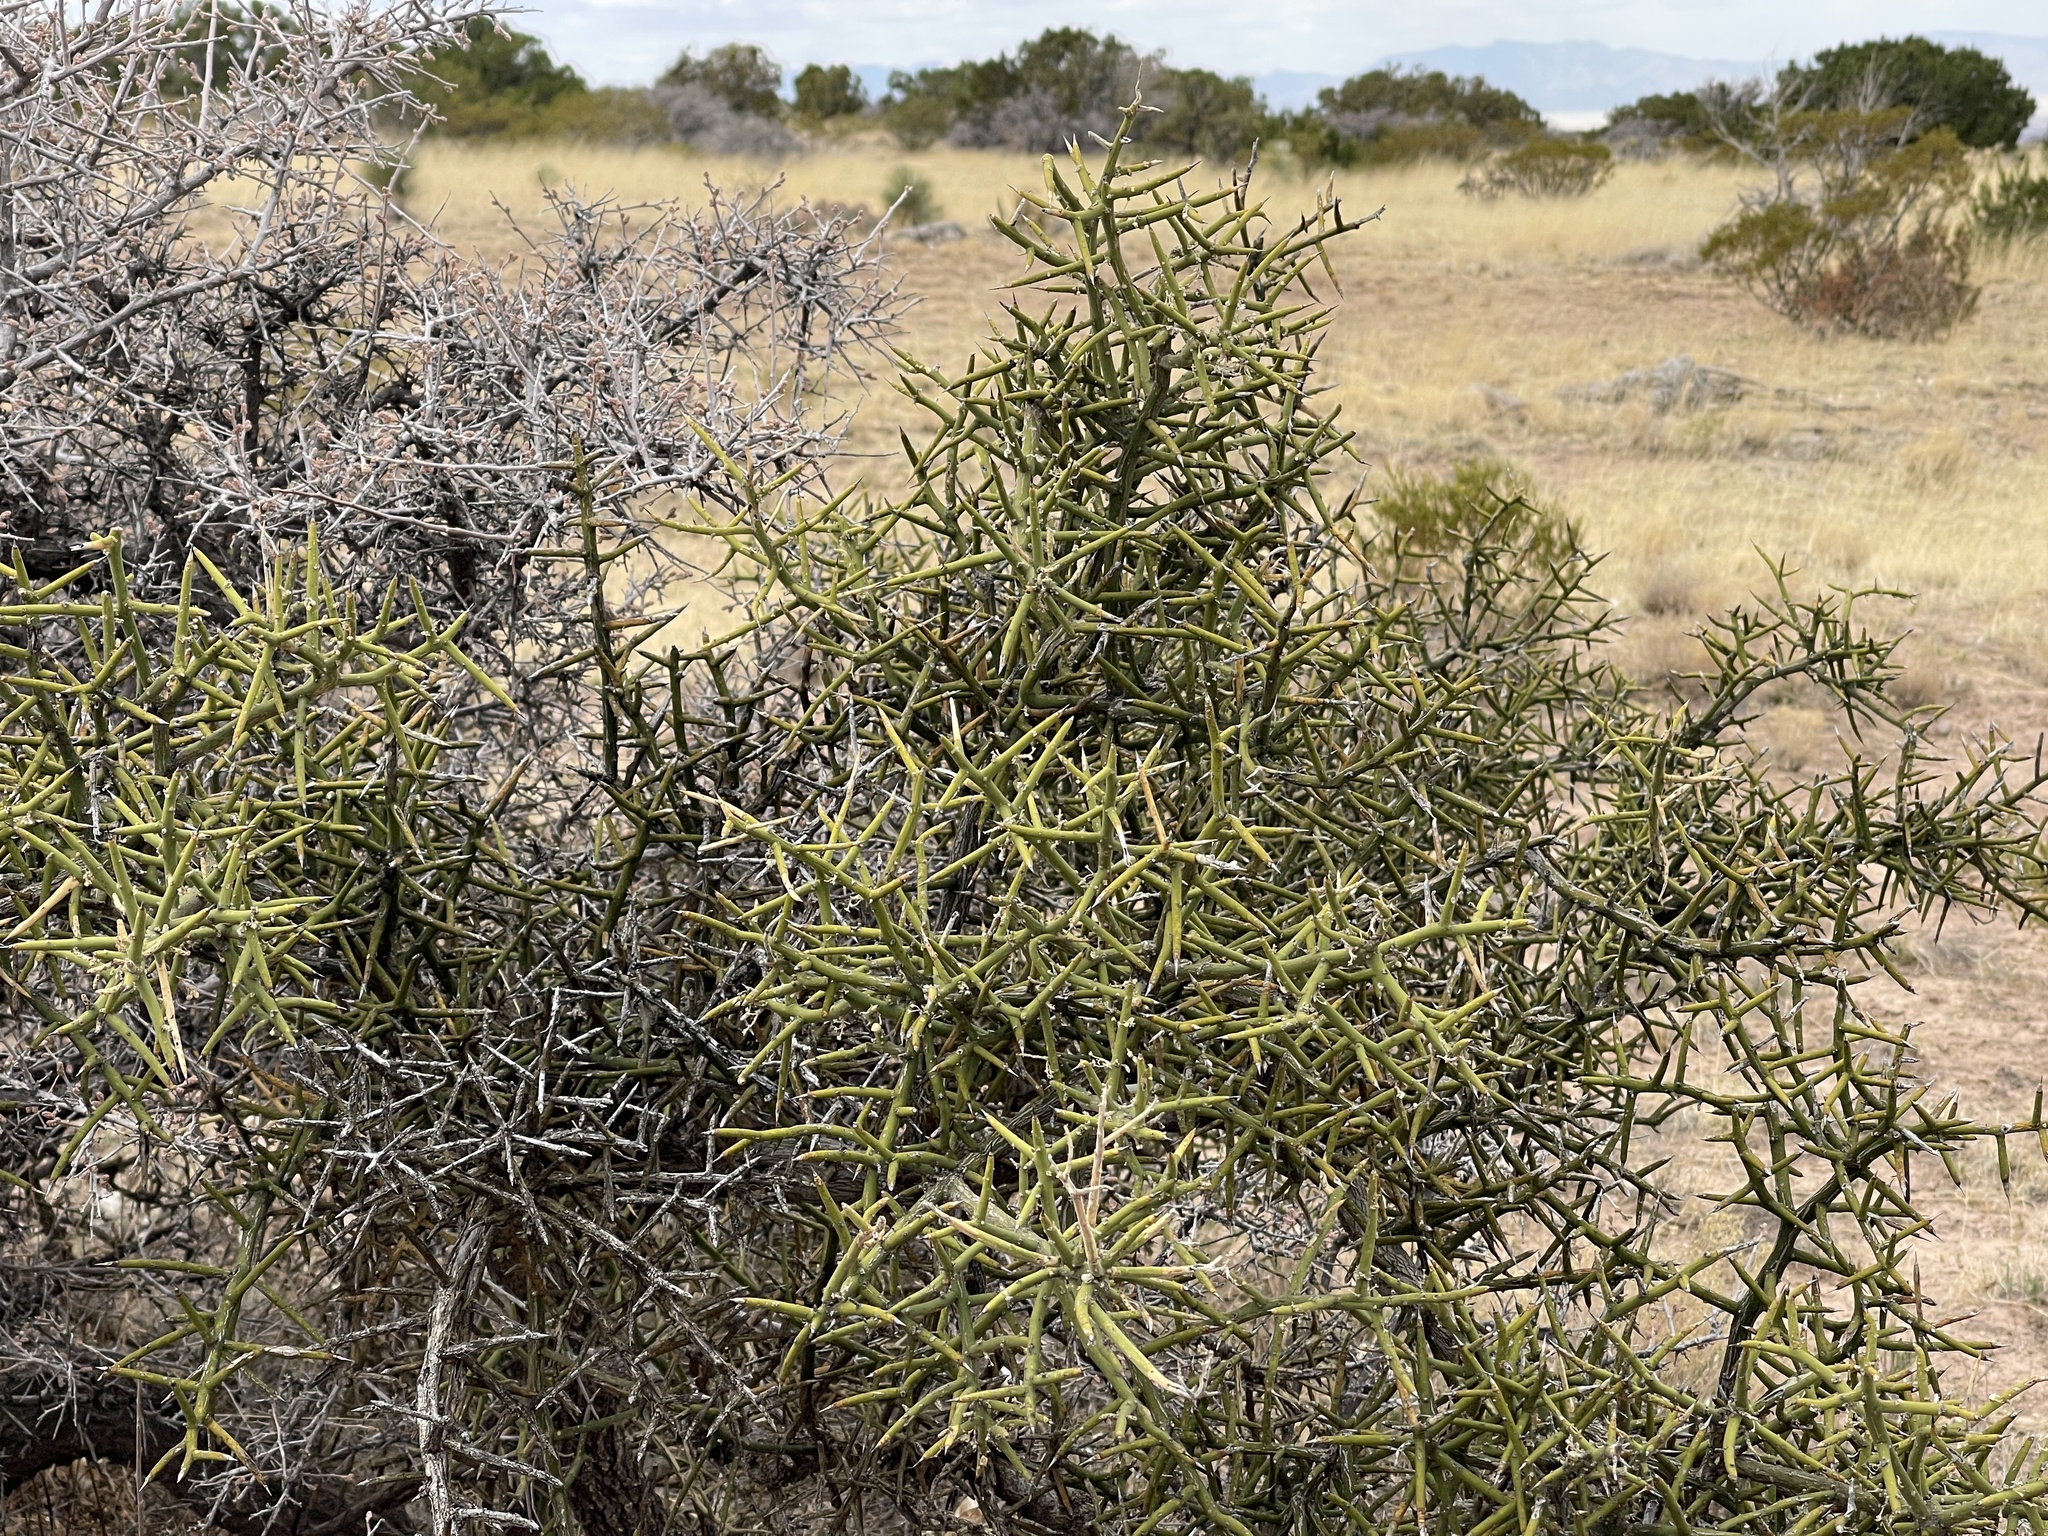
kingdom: Plantae
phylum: Tracheophyta
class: Magnoliopsida
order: Brassicales
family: Koeberliniaceae
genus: Koeberlinia
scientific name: Koeberlinia spinosa
